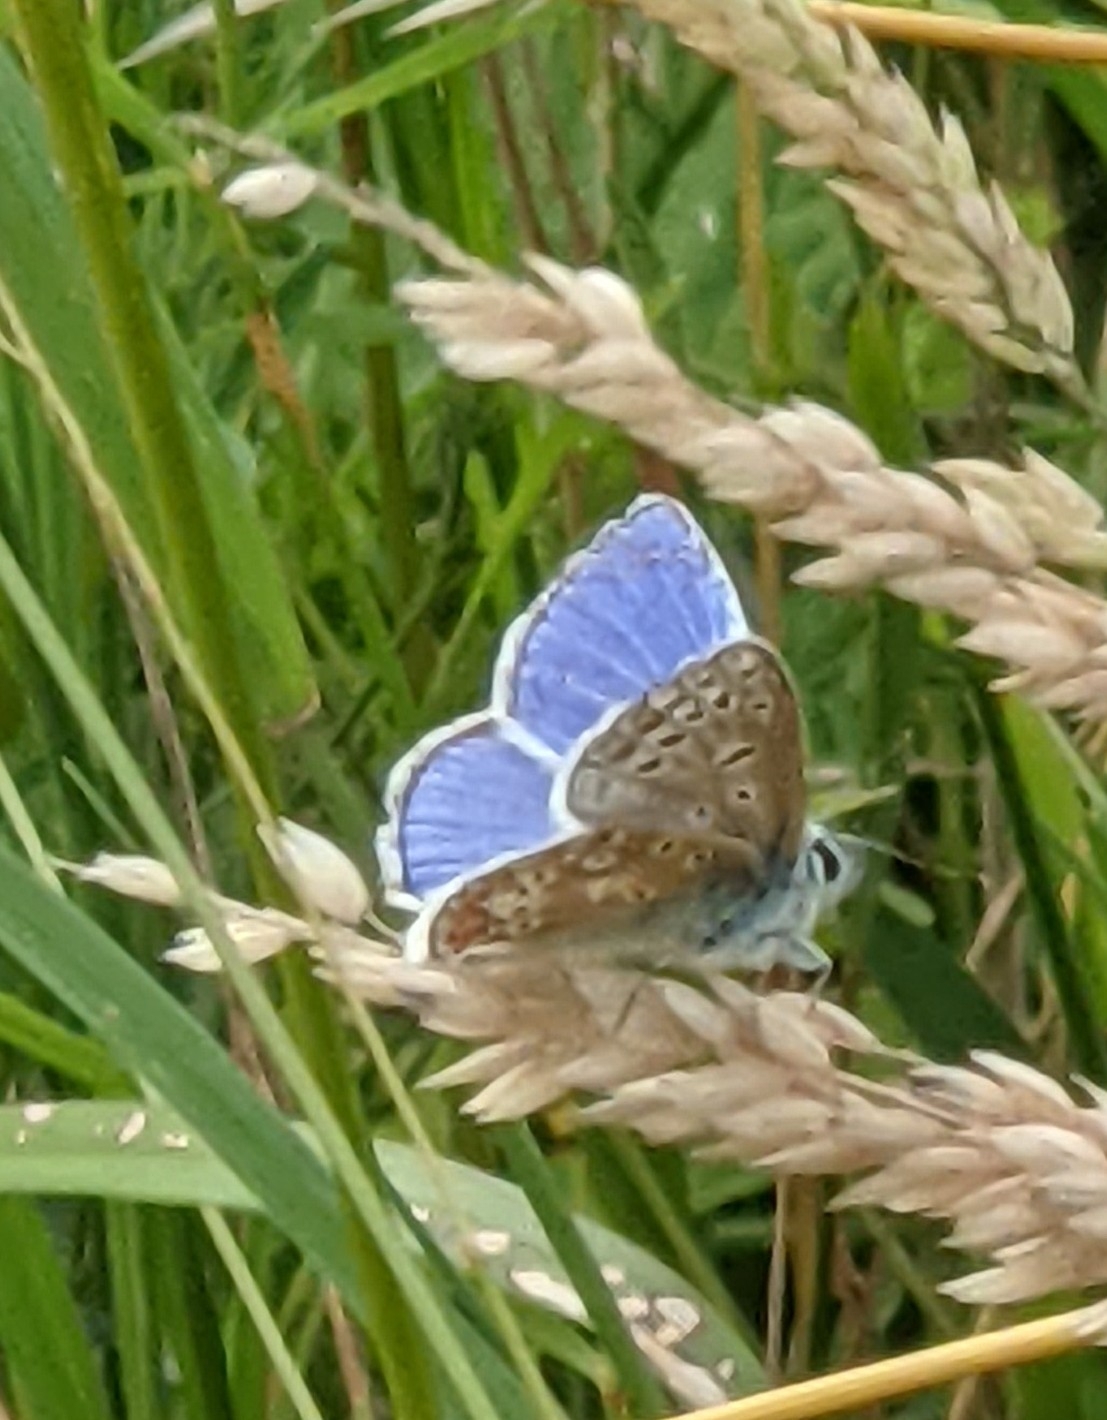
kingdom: Animalia
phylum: Arthropoda
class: Insecta
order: Lepidoptera
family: Lycaenidae
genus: Polyommatus
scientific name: Polyommatus icarus
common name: Common blue
